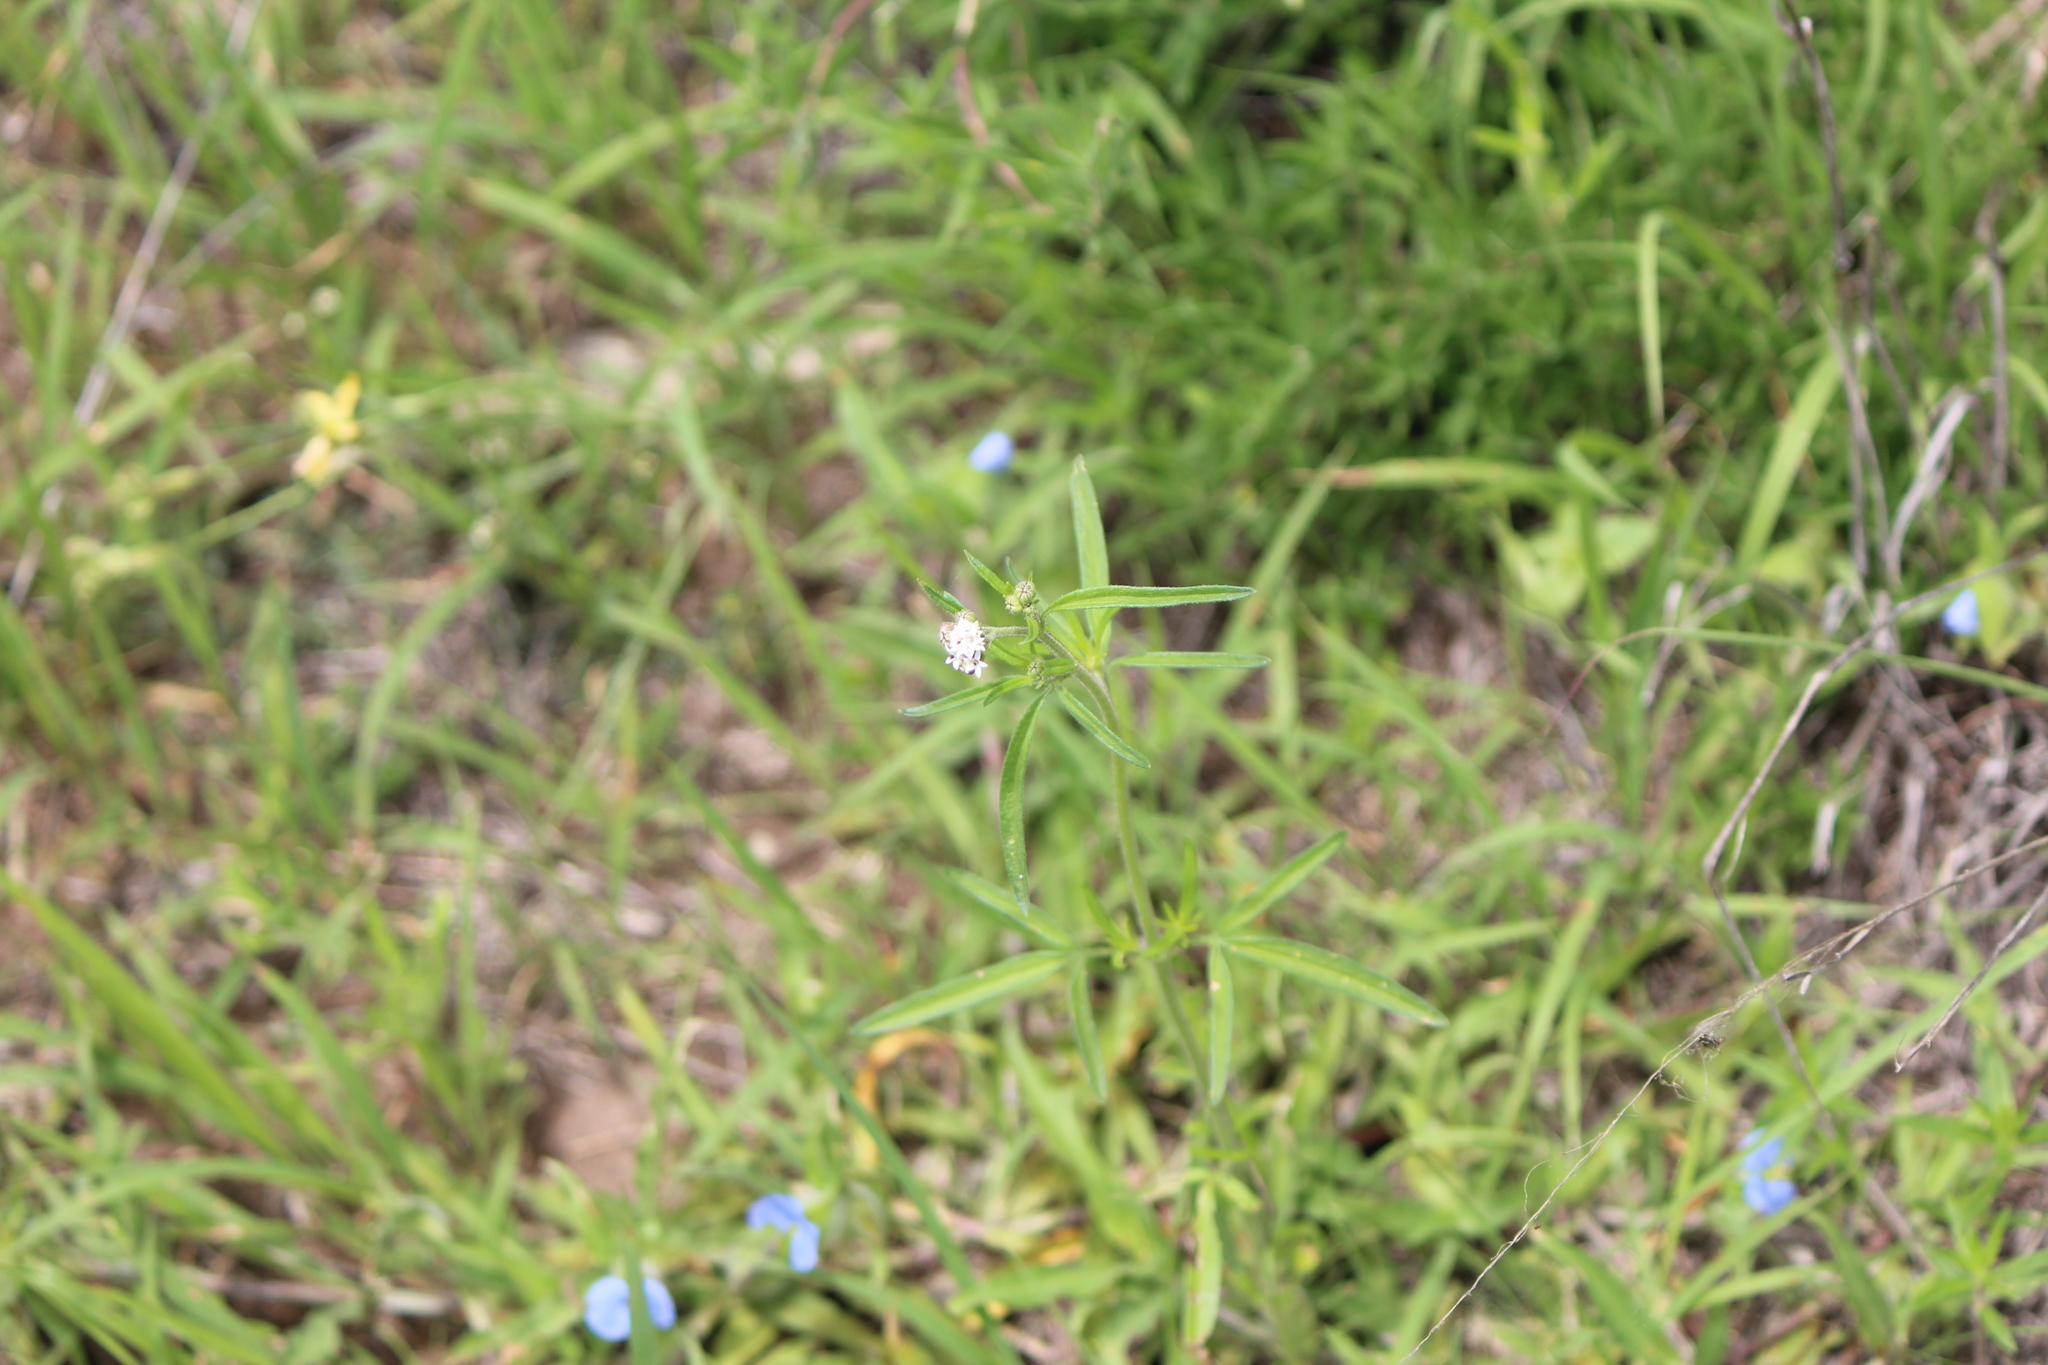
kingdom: Plantae
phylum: Tracheophyta
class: Magnoliopsida
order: Asterales
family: Asteraceae
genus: Florestina
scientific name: Florestina pedata
